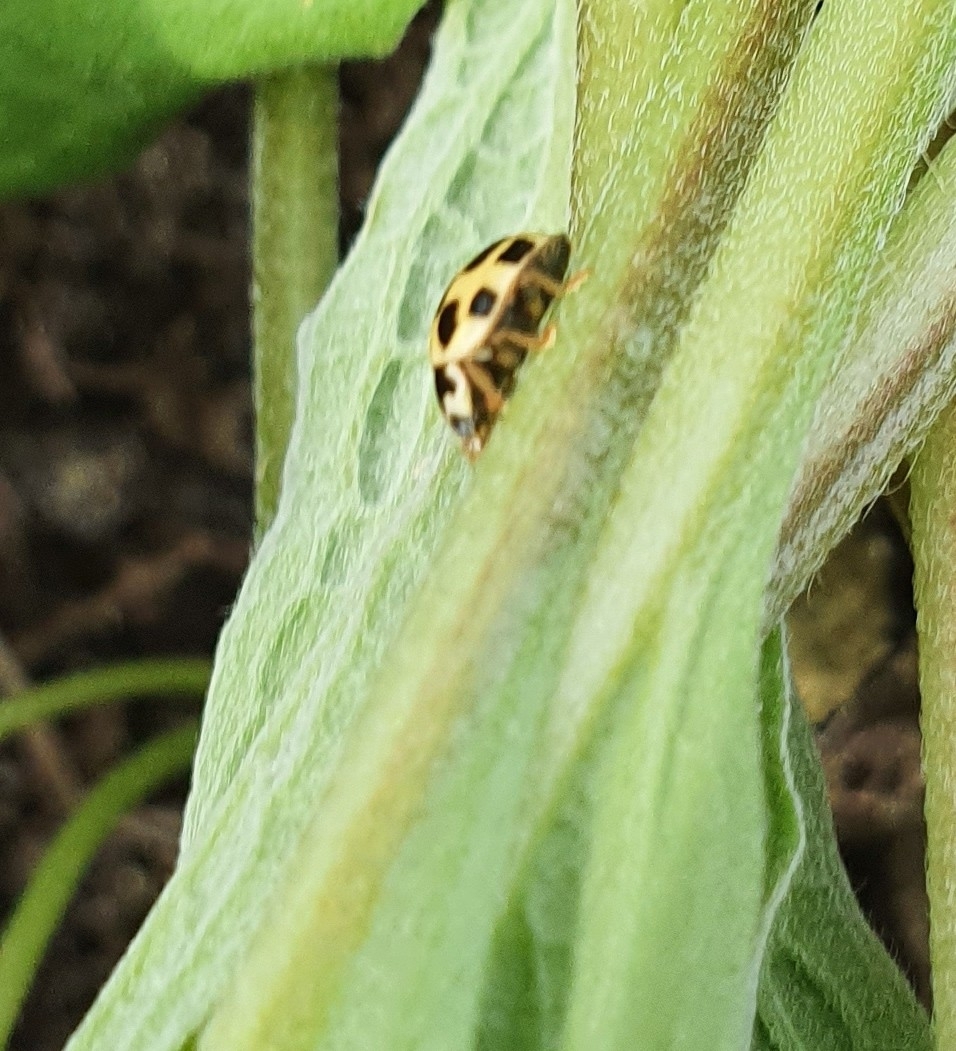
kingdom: Animalia
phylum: Arthropoda
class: Insecta
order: Coleoptera
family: Coccinellidae
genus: Propylaea
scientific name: Propylaea quatuordecimpunctata
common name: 14-spotted ladybird beetle
